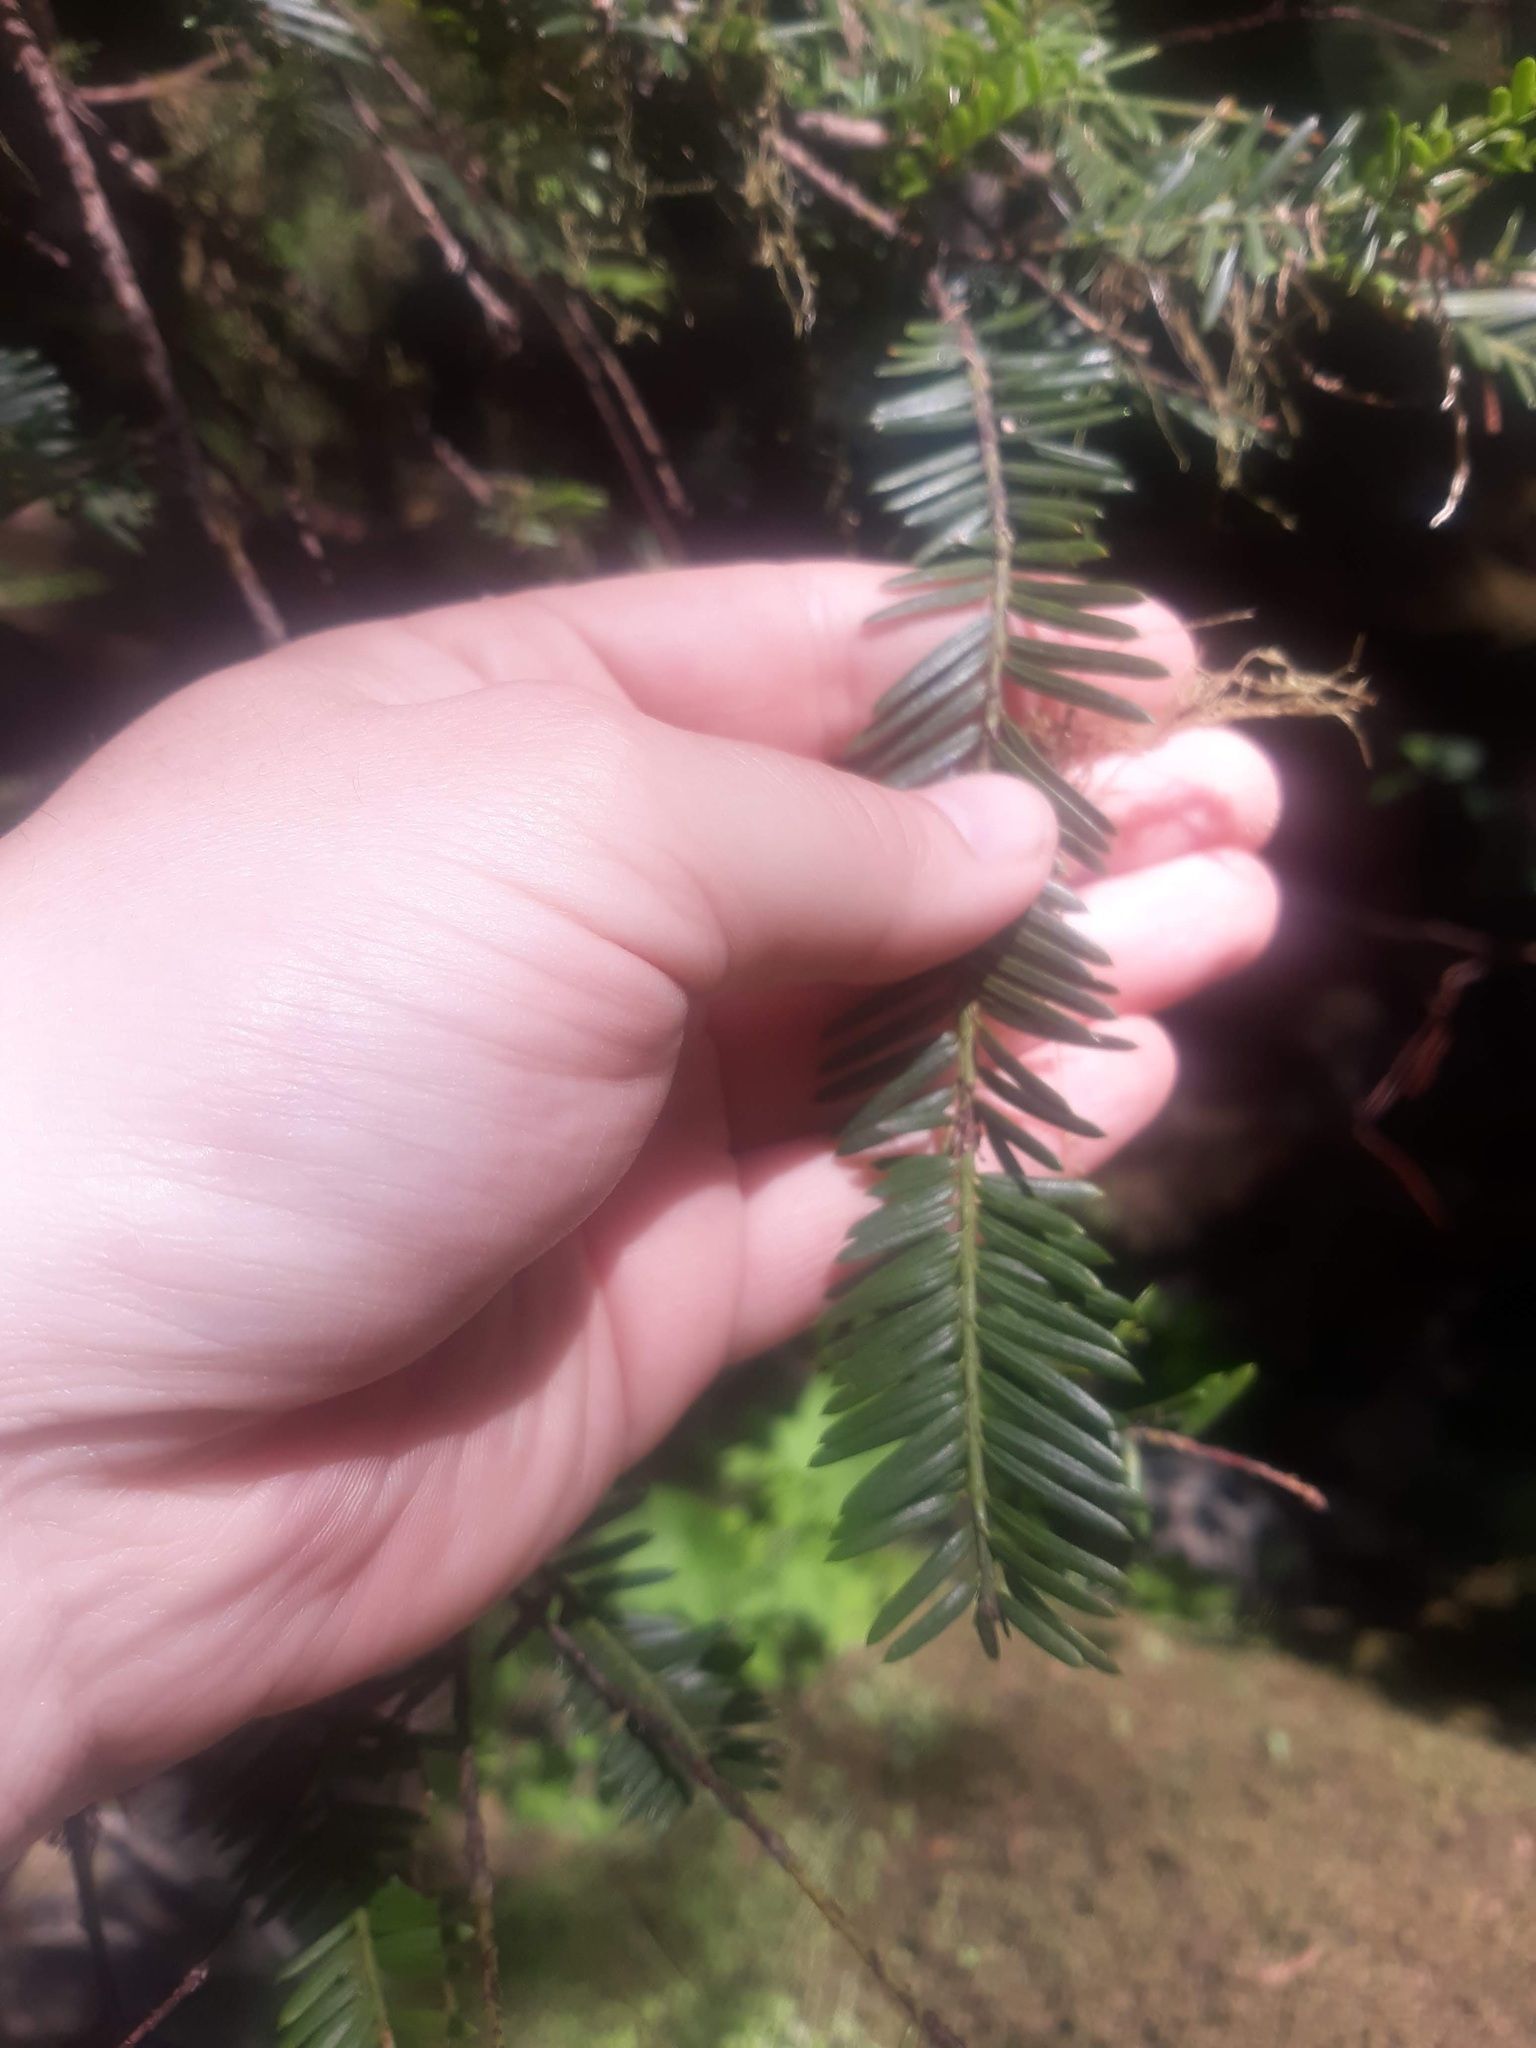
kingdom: Plantae
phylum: Tracheophyta
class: Pinopsida
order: Pinales
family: Taxaceae
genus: Taxus
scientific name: Taxus brevifolia
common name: Pacific yew
